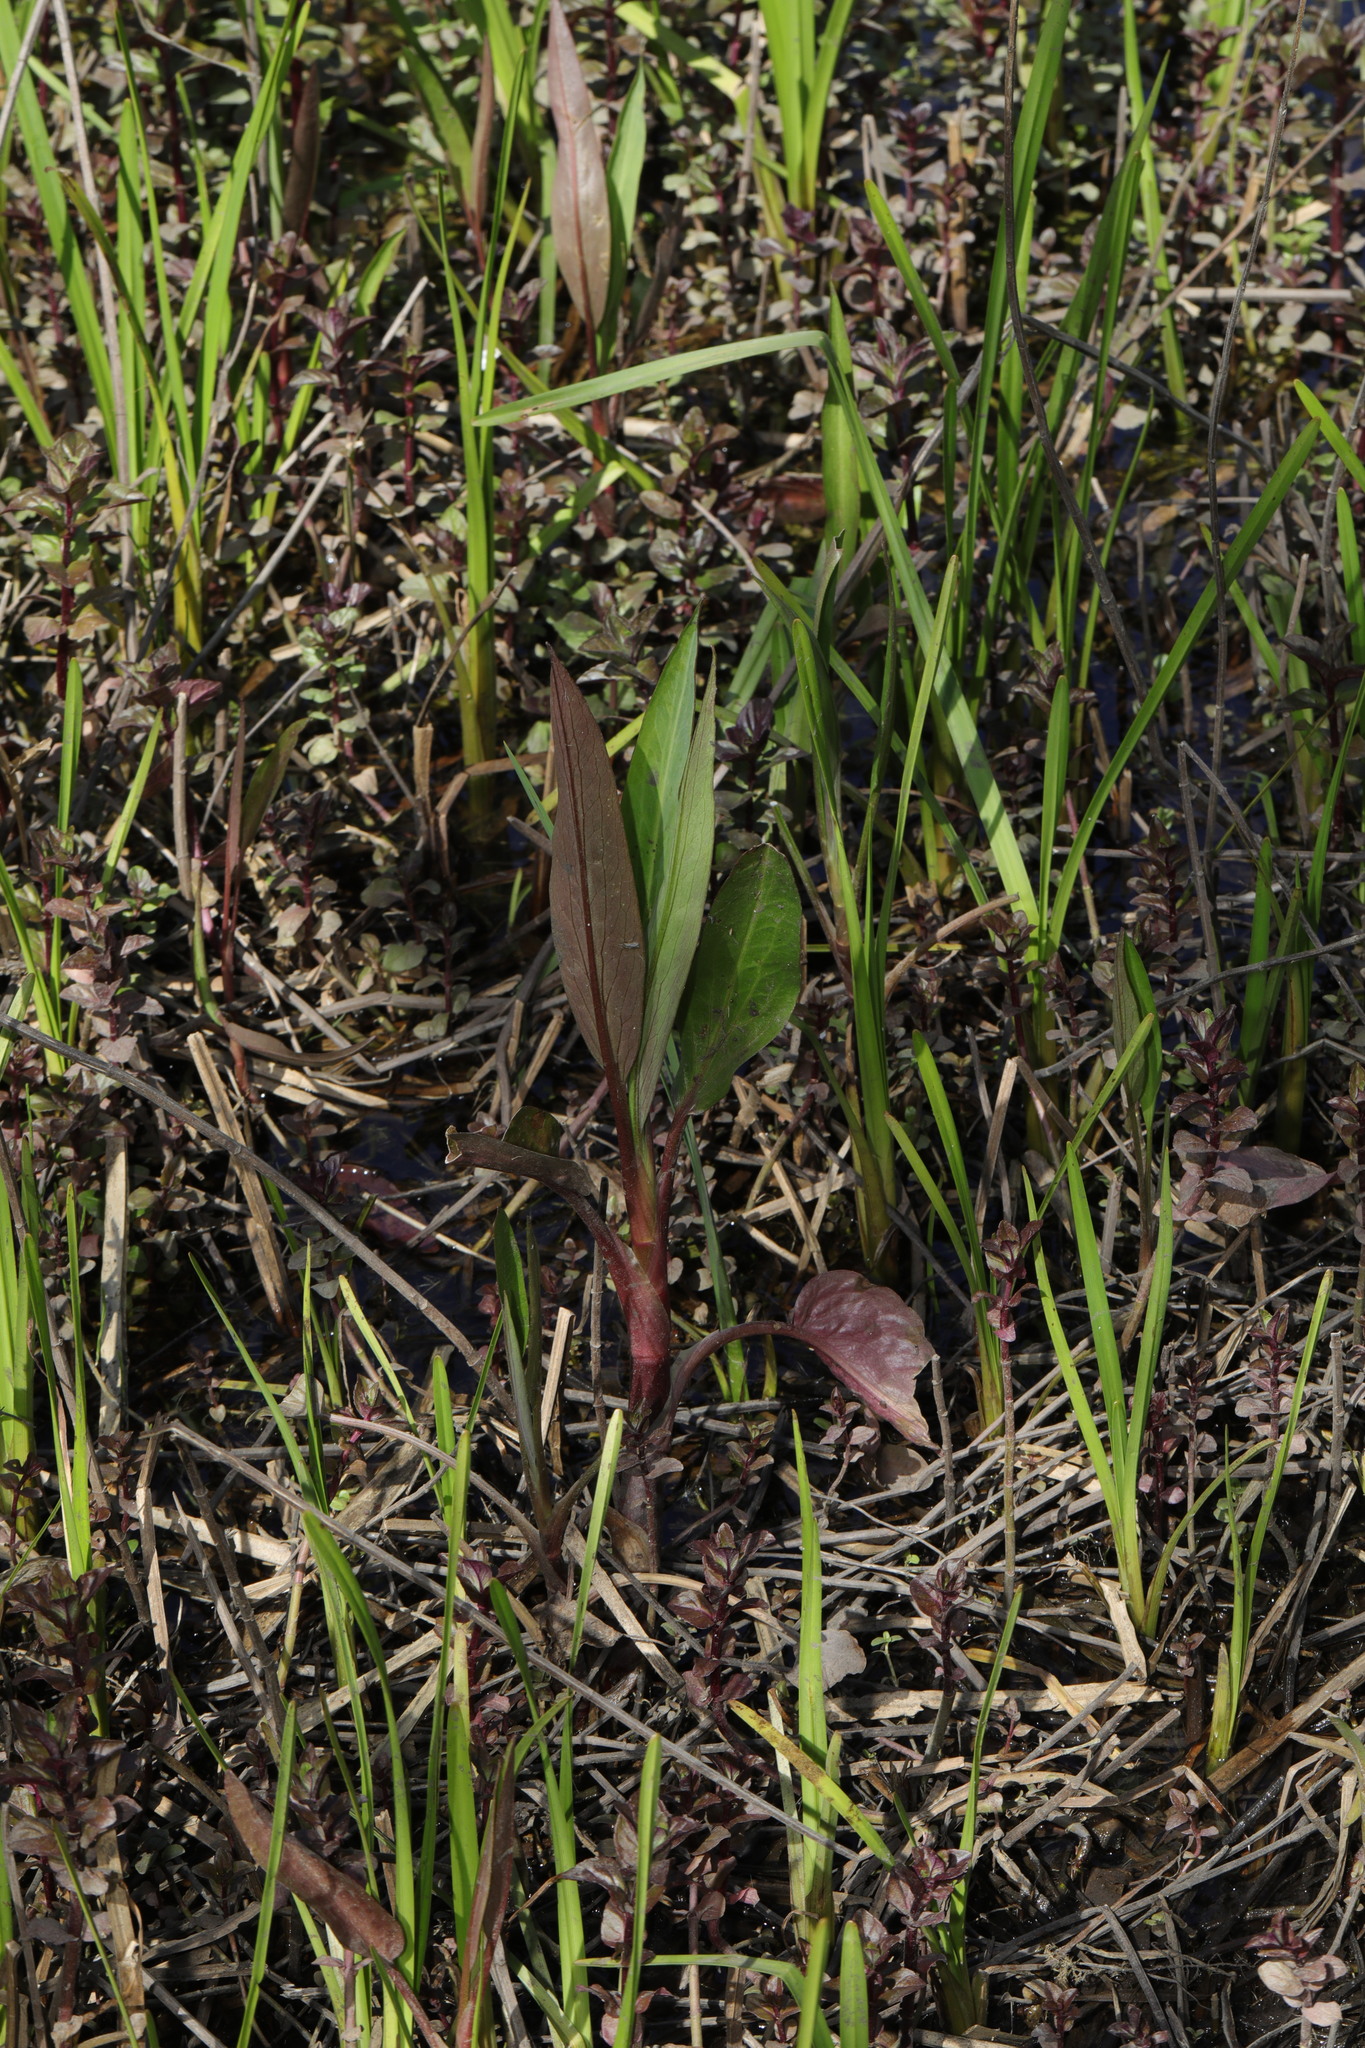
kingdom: Plantae
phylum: Tracheophyta
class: Liliopsida
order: Alismatales
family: Alismataceae
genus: Alisma
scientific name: Alisma plantago-aquatica
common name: Water-plantain
